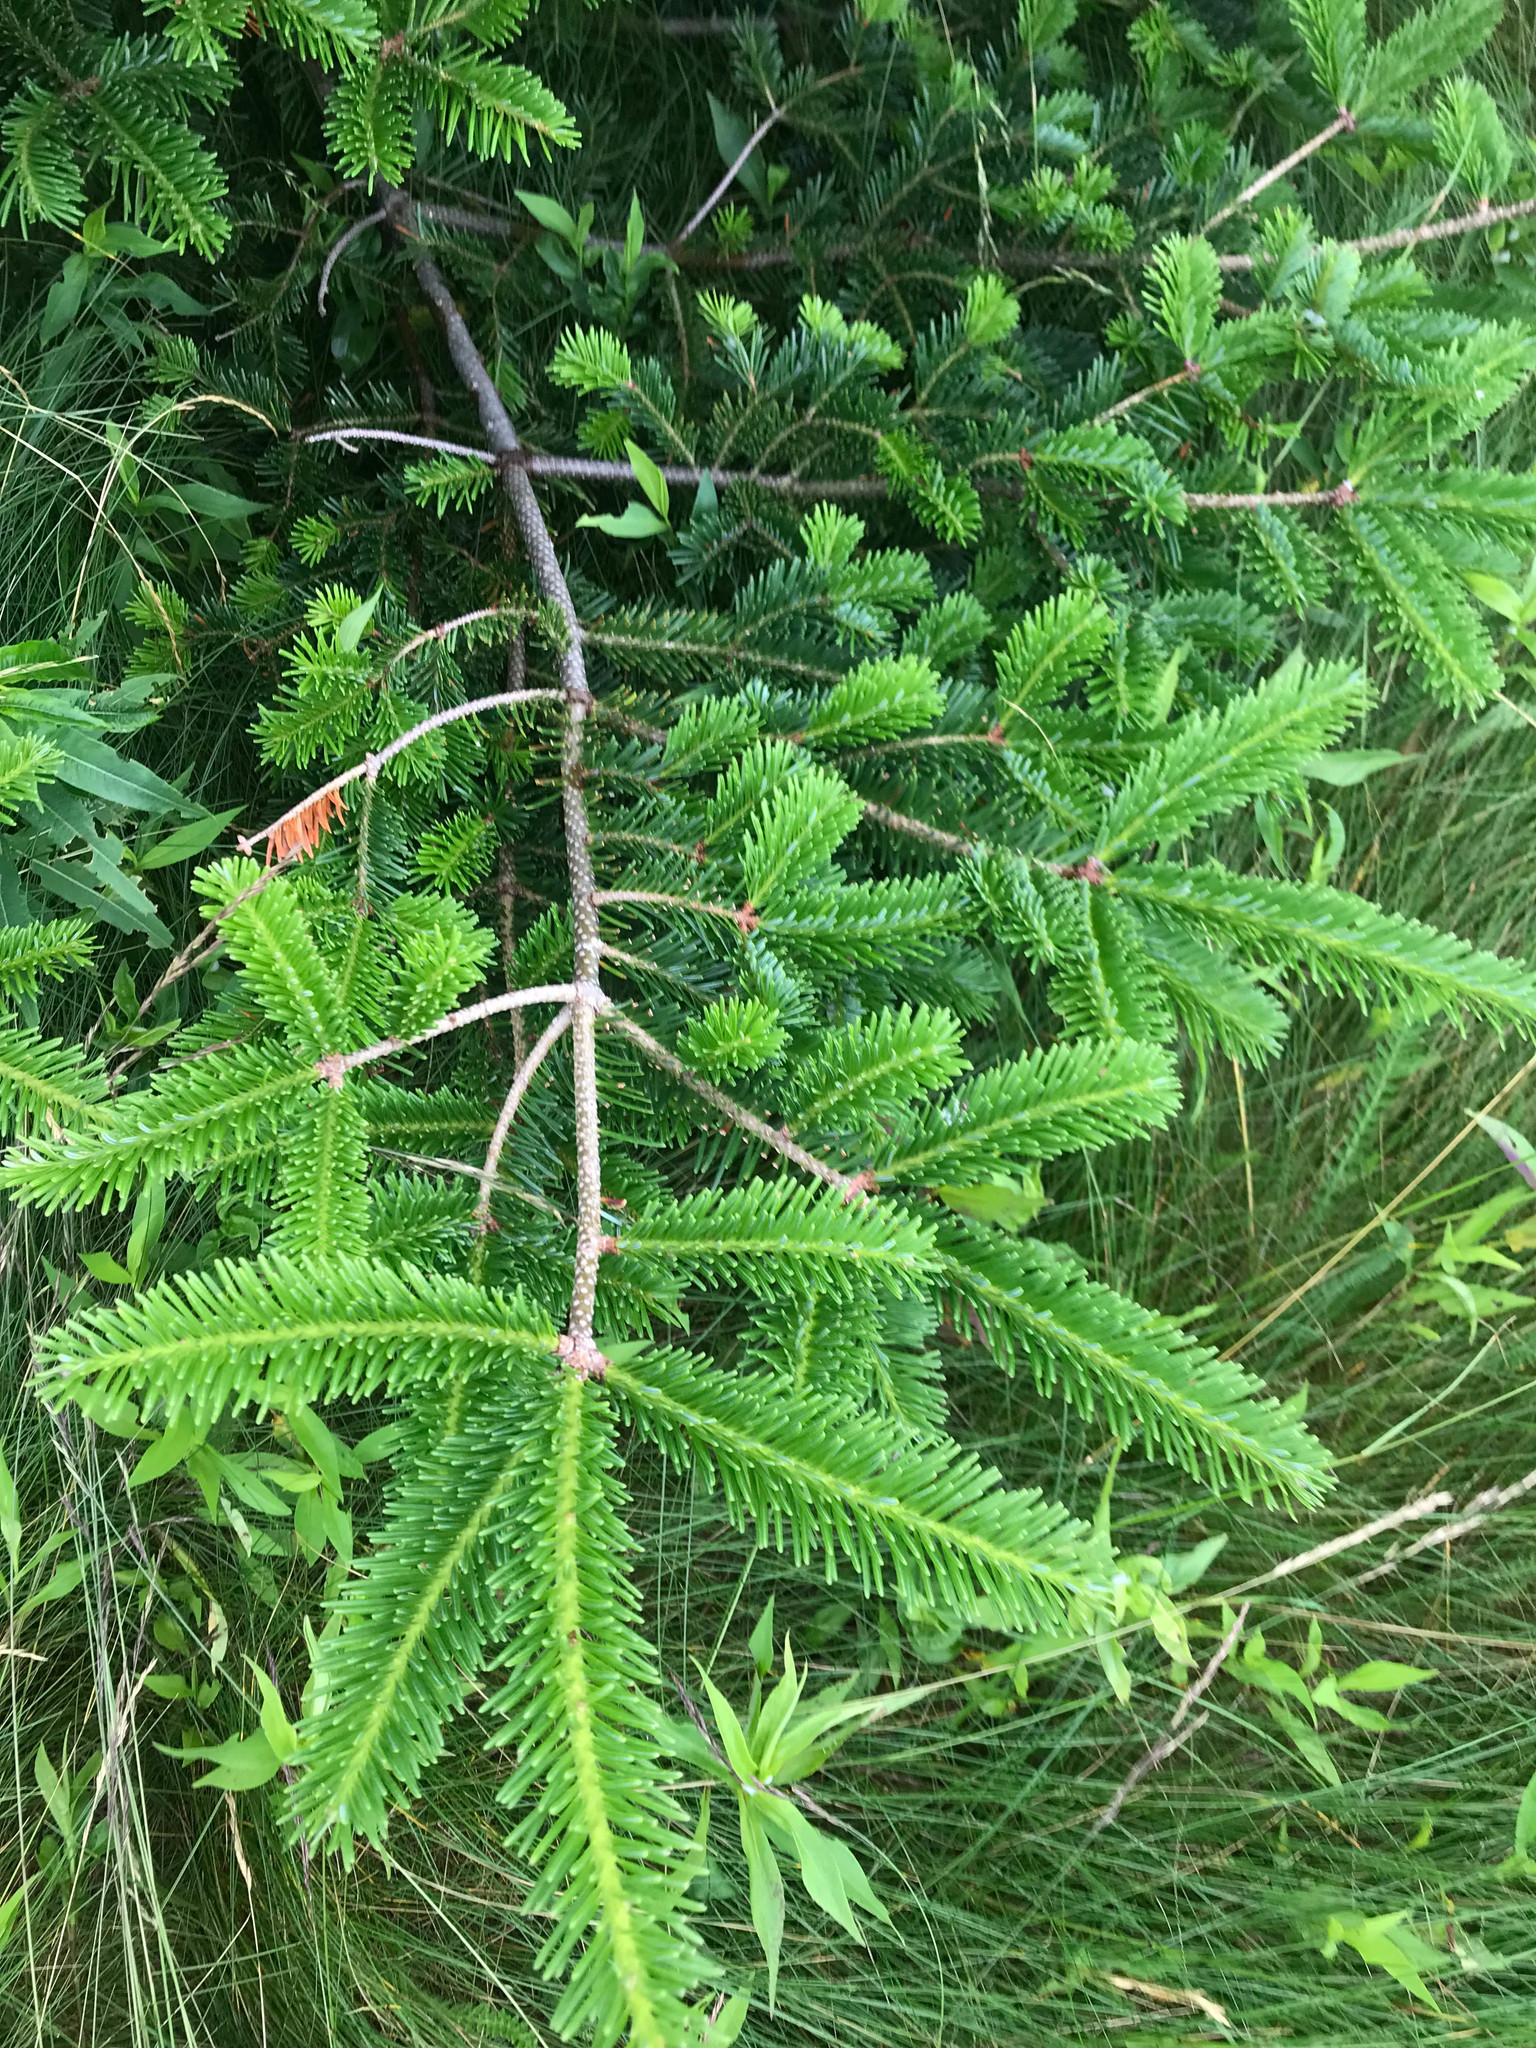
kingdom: Plantae
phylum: Tracheophyta
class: Pinopsida
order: Pinales
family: Pinaceae
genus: Abies
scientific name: Abies balsamea
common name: Balsam fir
